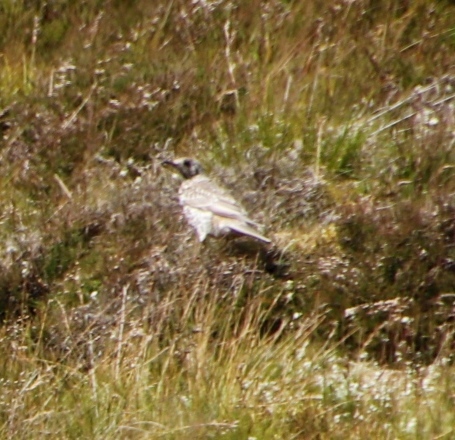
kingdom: Animalia
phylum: Chordata
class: Aves
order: Passeriformes
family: Turdidae
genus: Turdus
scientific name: Turdus viscivorus
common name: Mistle thrush
